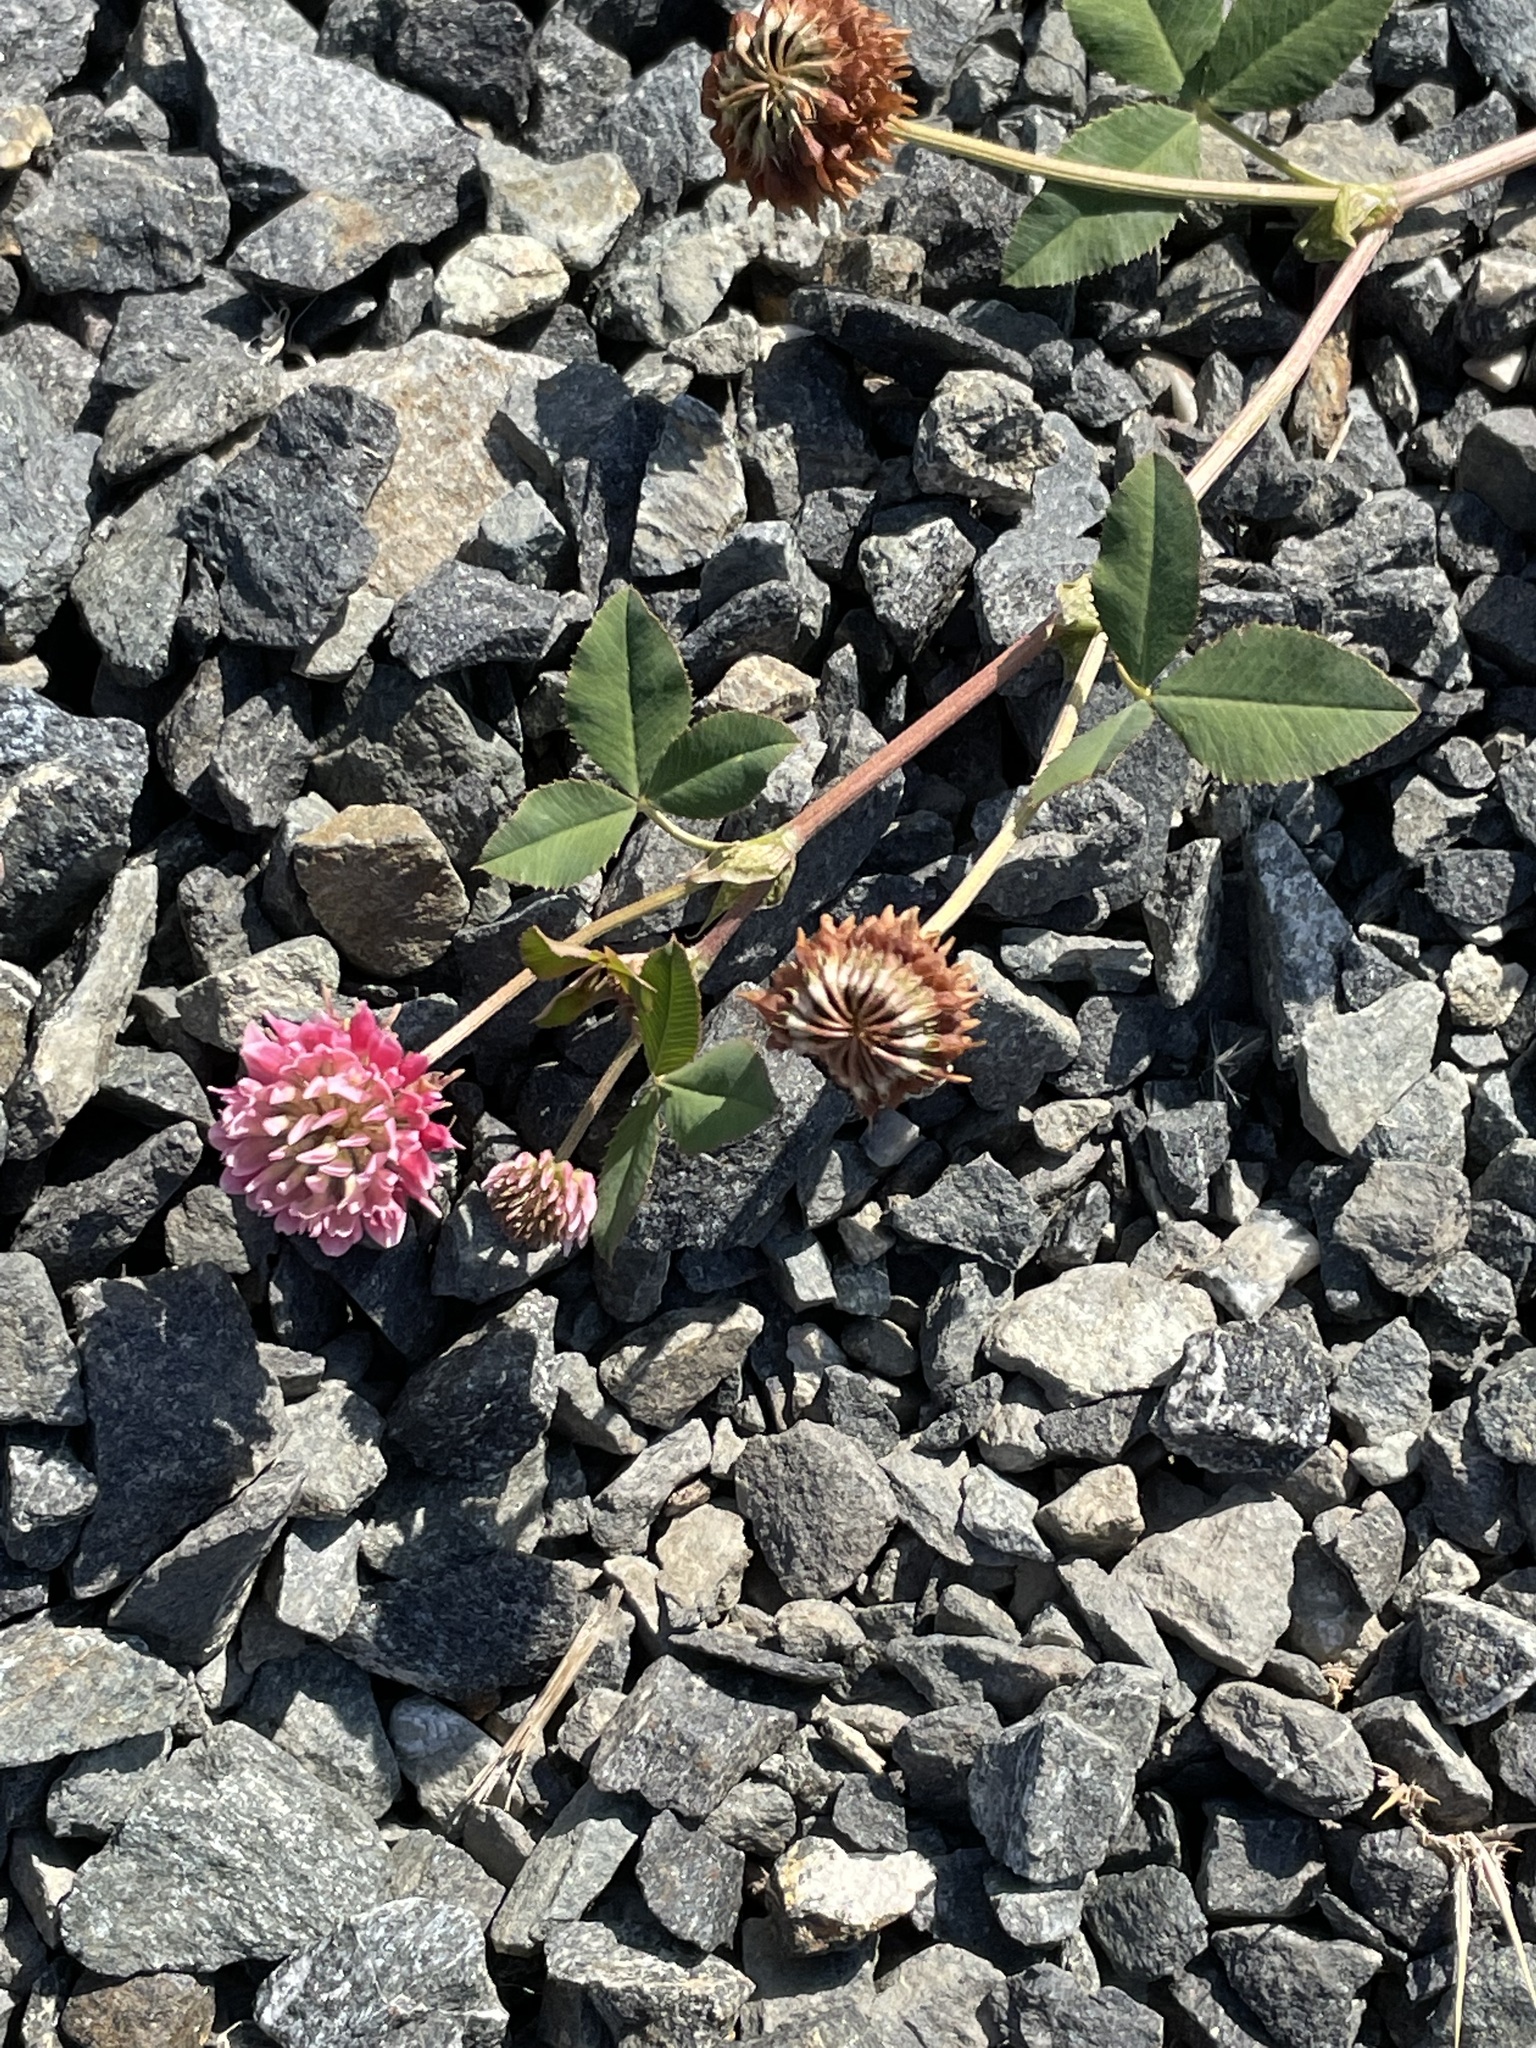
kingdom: Plantae
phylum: Tracheophyta
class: Magnoliopsida
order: Fabales
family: Fabaceae
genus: Trifolium
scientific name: Trifolium hybridum
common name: Alsike clover
